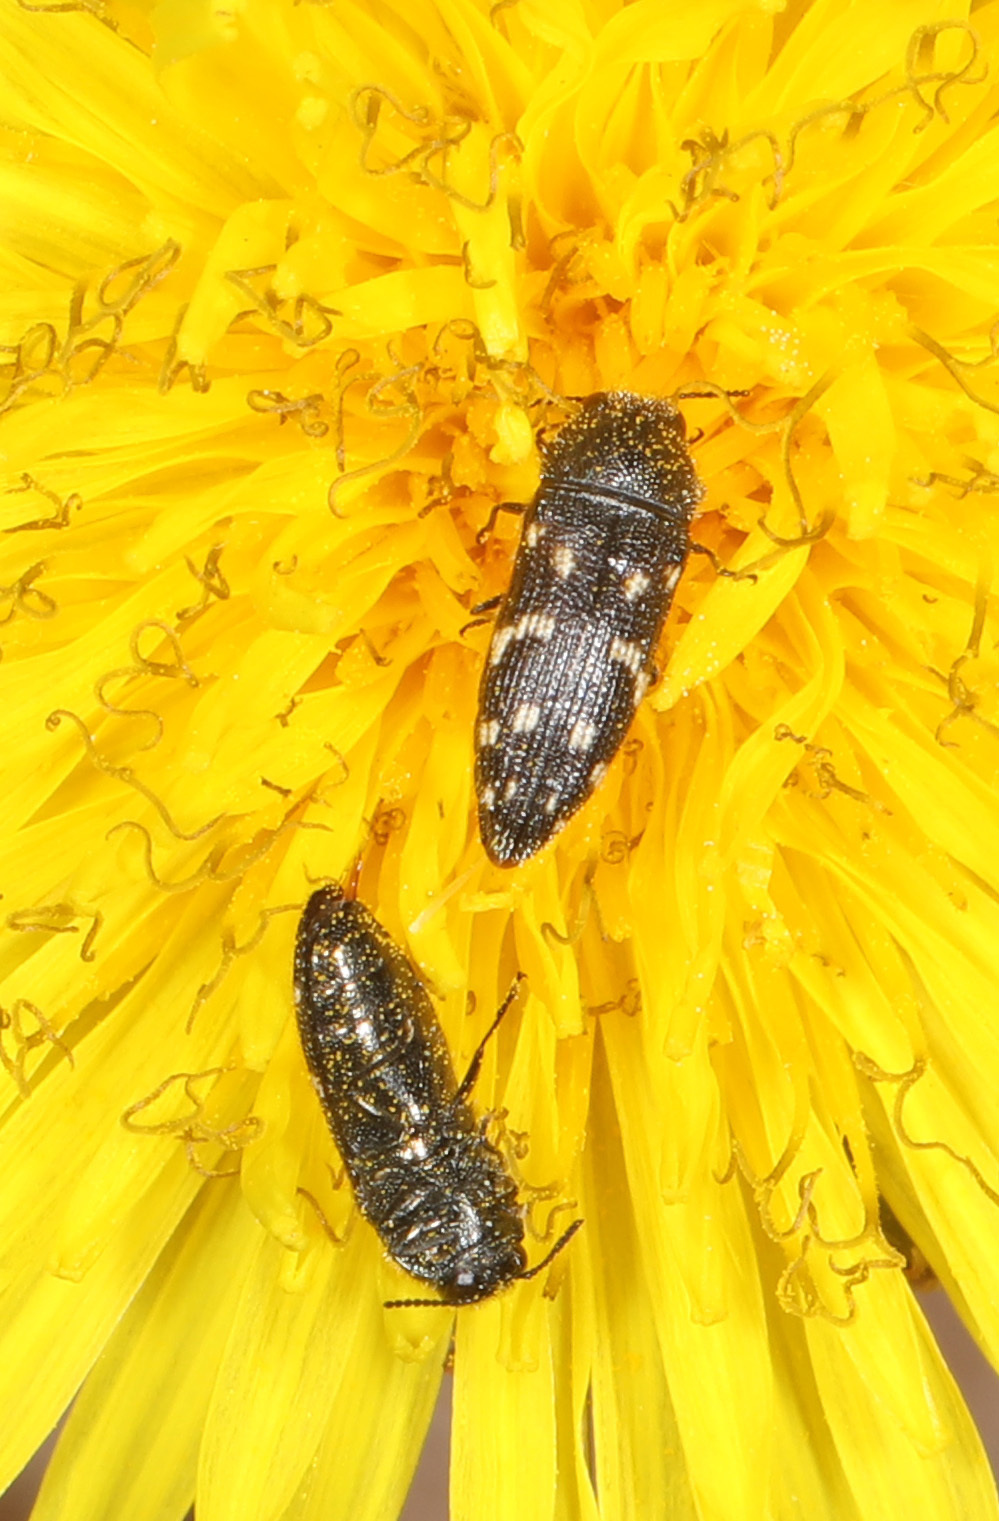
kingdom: Animalia
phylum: Arthropoda
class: Insecta
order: Coleoptera
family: Buprestidae
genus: Acmaeodera
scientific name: Acmaeodera tubulus
